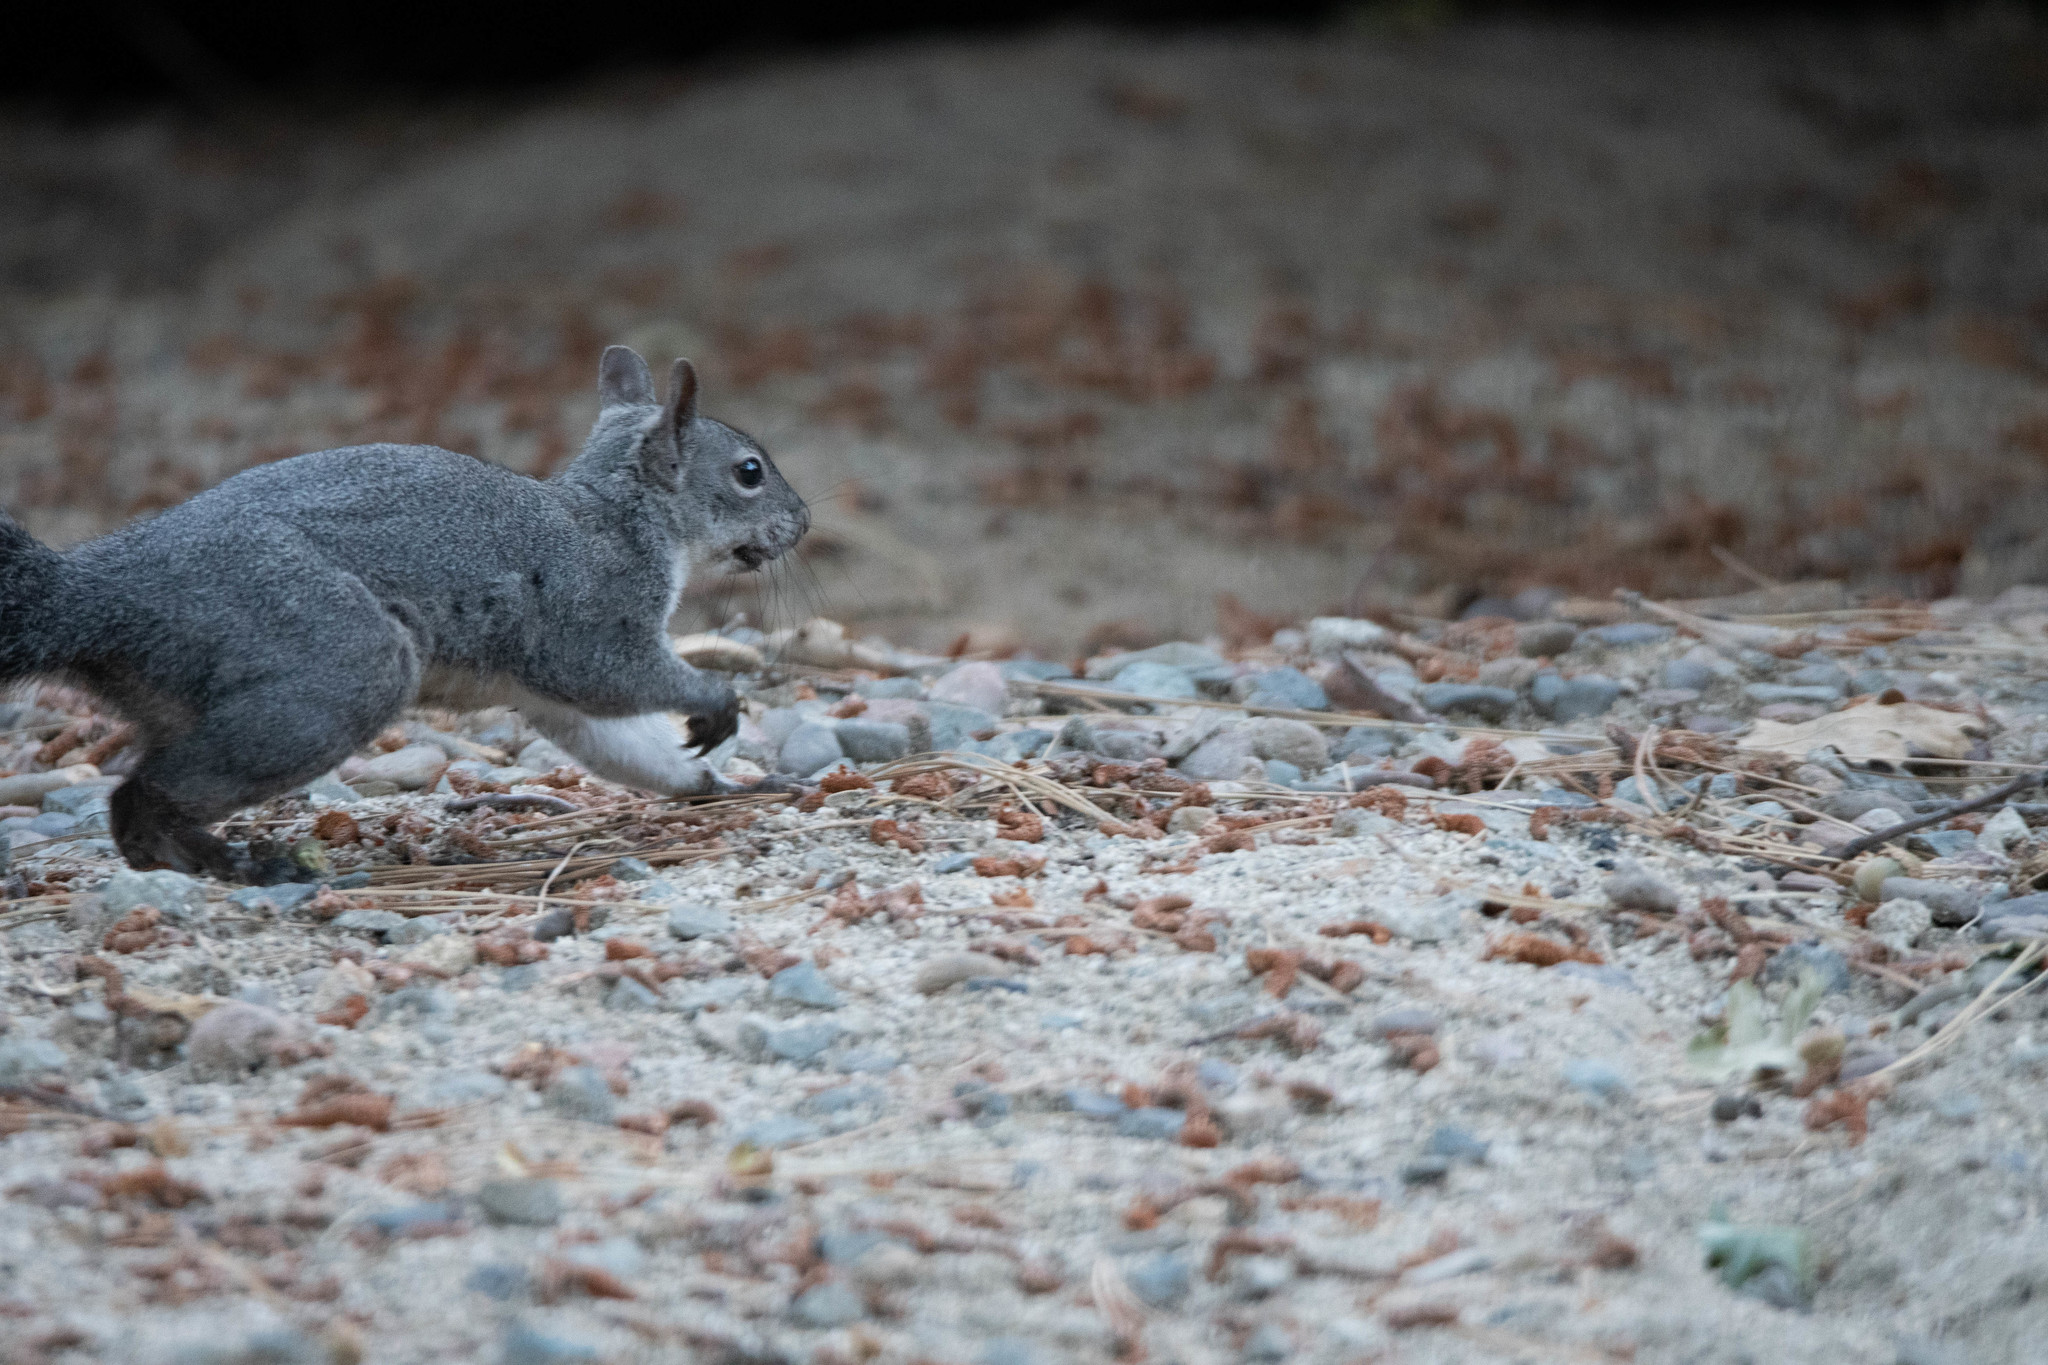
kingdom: Animalia
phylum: Chordata
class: Mammalia
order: Rodentia
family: Sciuridae
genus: Sciurus
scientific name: Sciurus griseus
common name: Western gray squirrel
